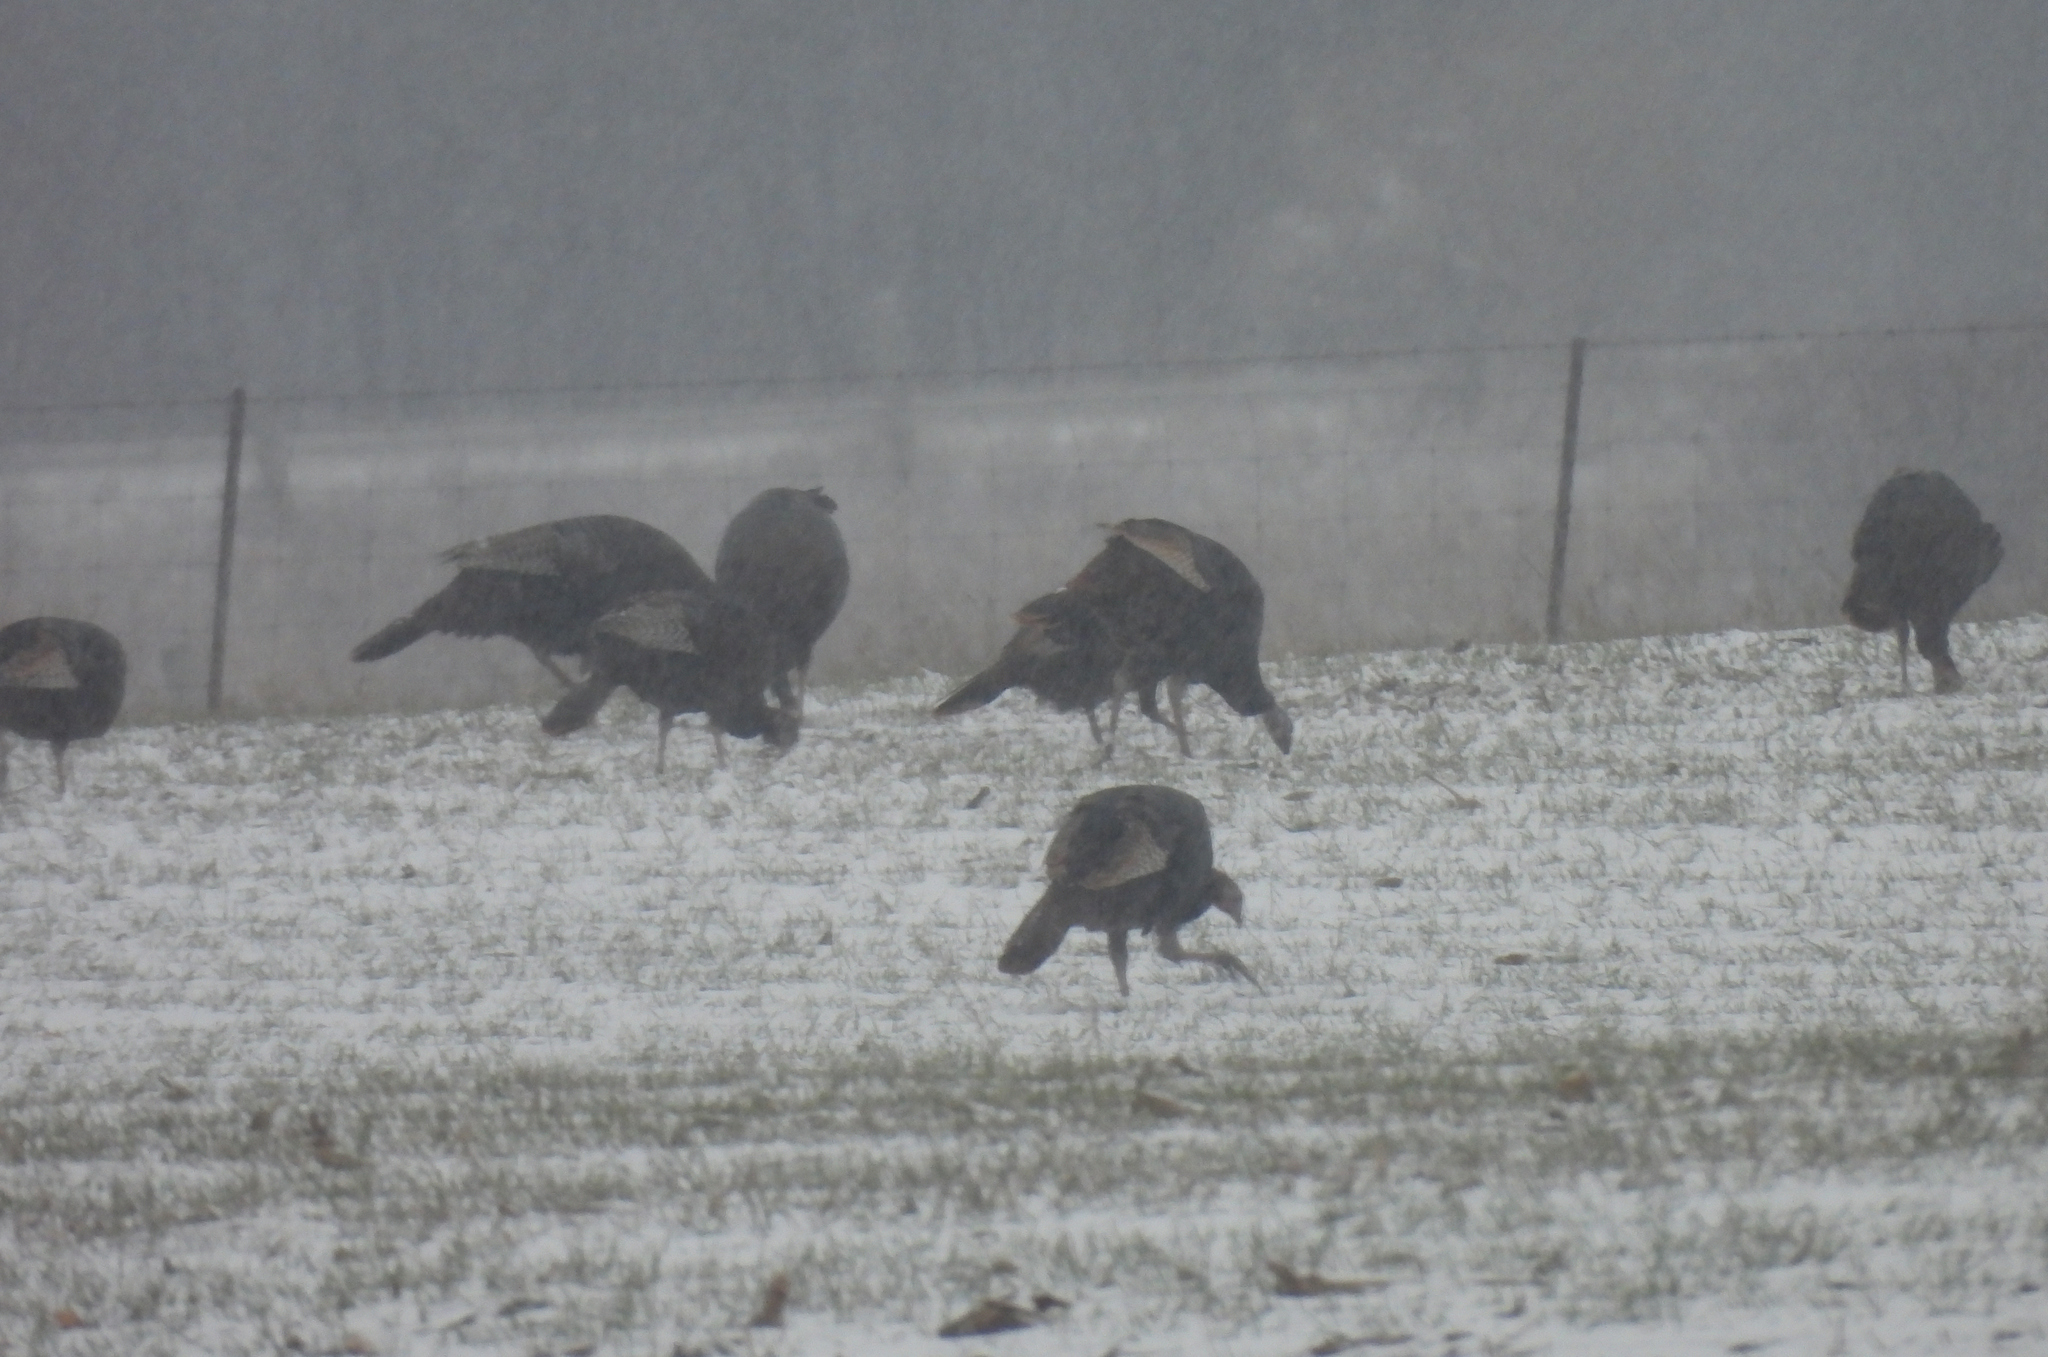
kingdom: Animalia
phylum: Chordata
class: Aves
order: Galliformes
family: Phasianidae
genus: Meleagris
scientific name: Meleagris gallopavo
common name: Wild turkey
